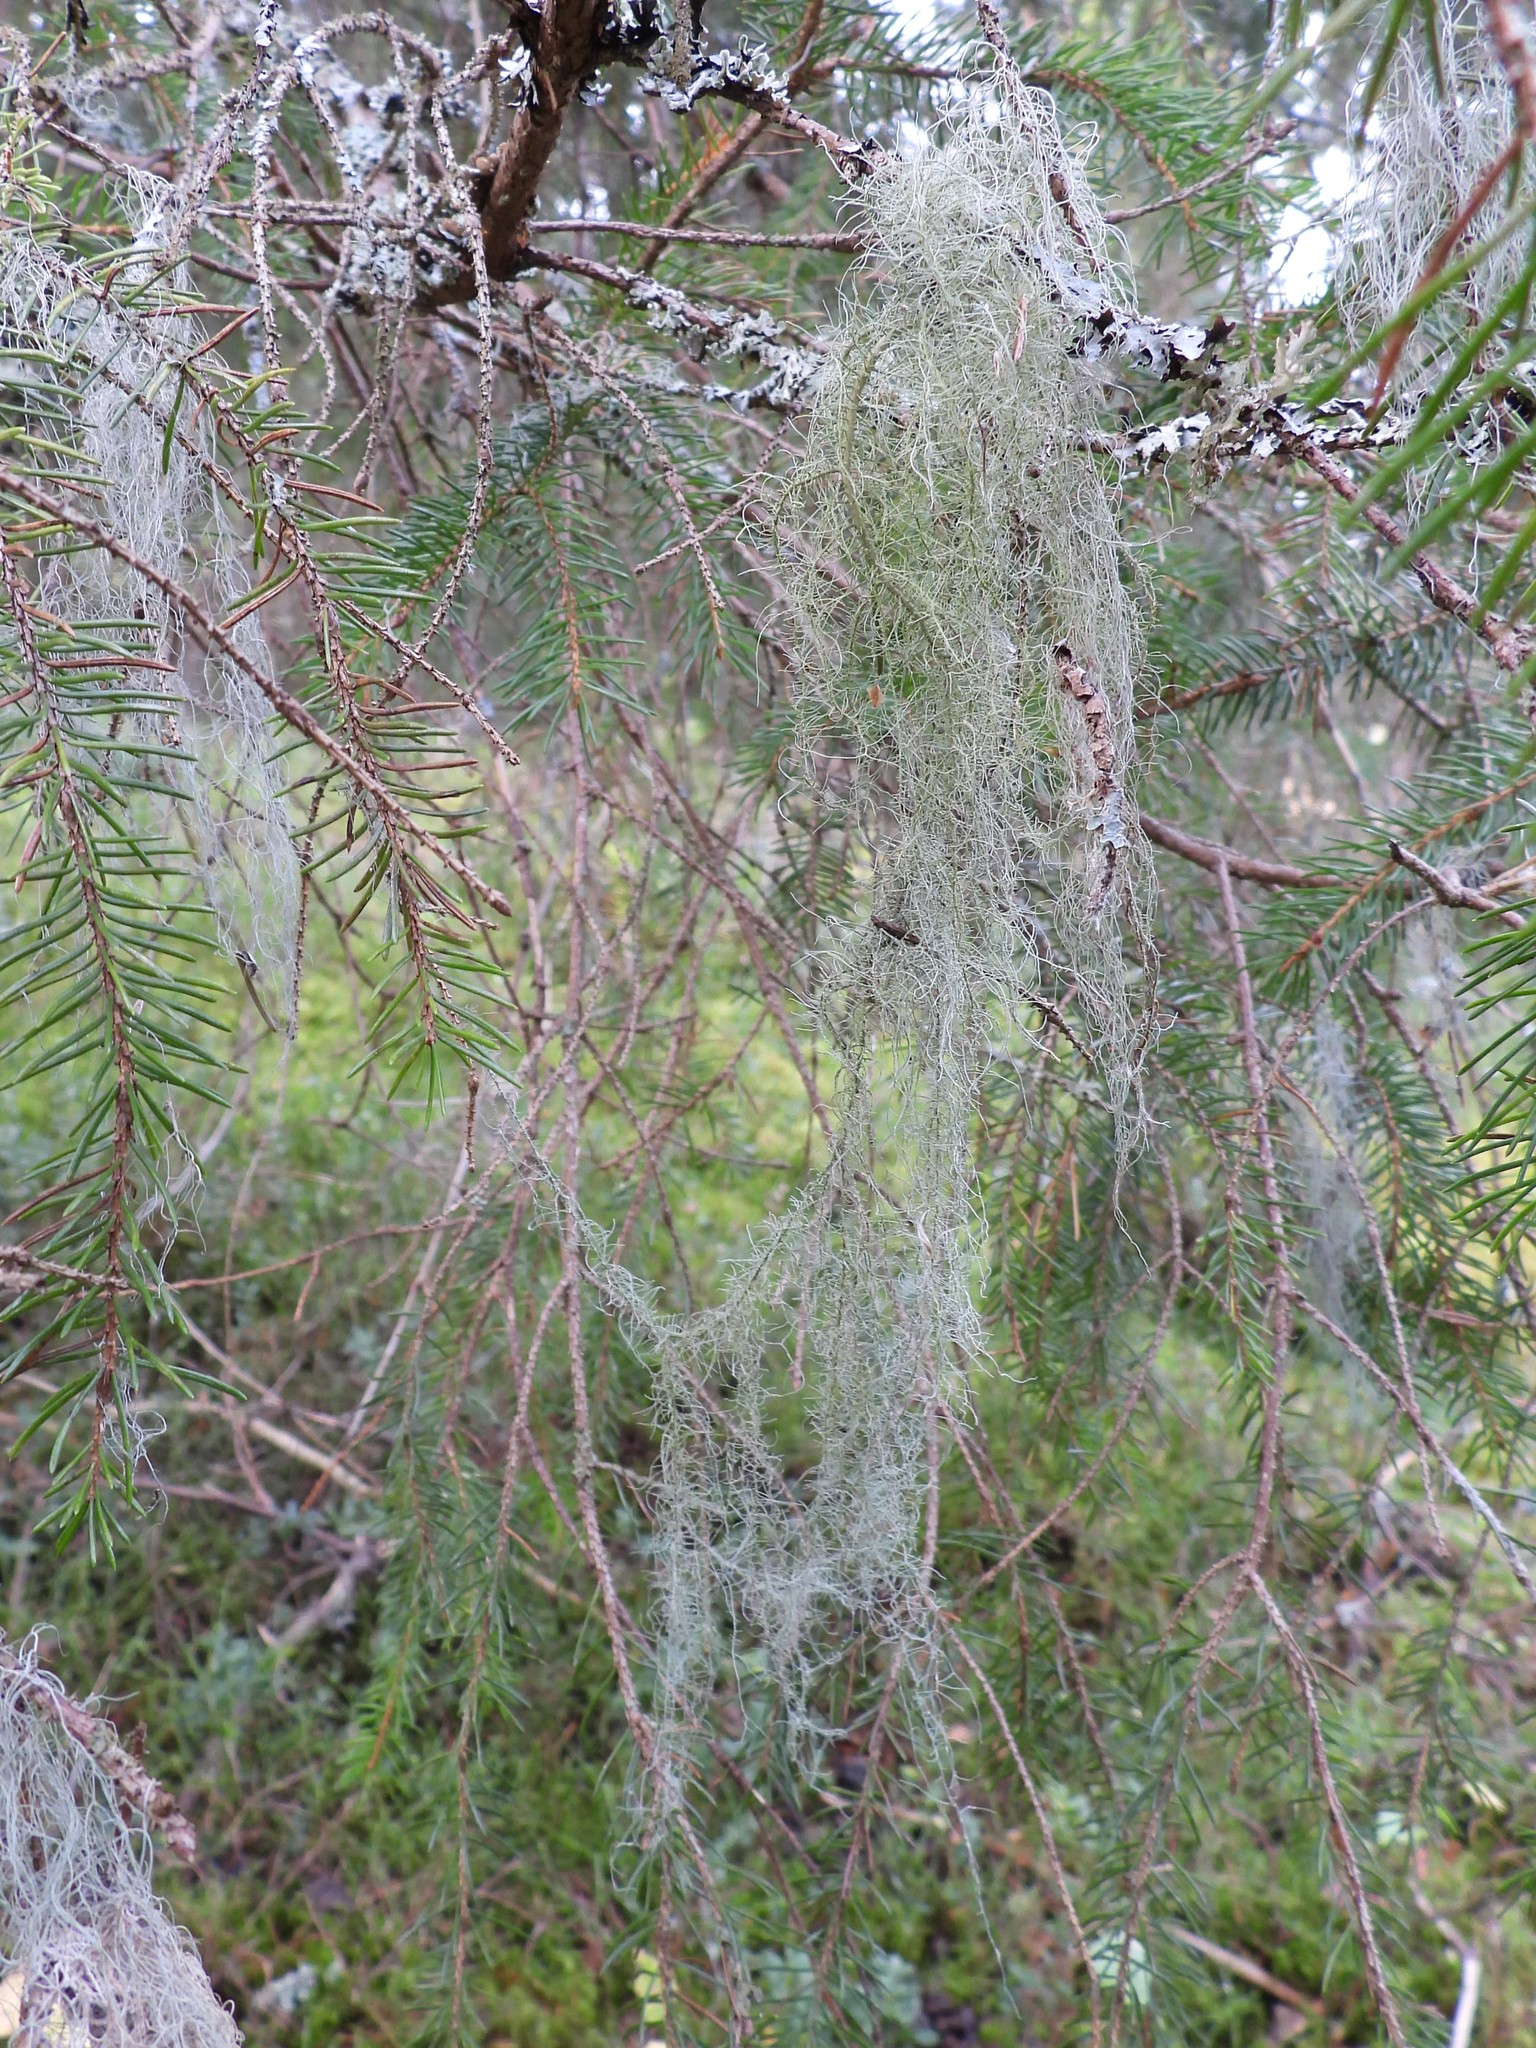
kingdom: Fungi
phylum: Ascomycota
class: Lecanoromycetes
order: Lecanorales
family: Parmeliaceae
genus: Usnea
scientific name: Usnea dasopoga
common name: Fishbone beard lichen
